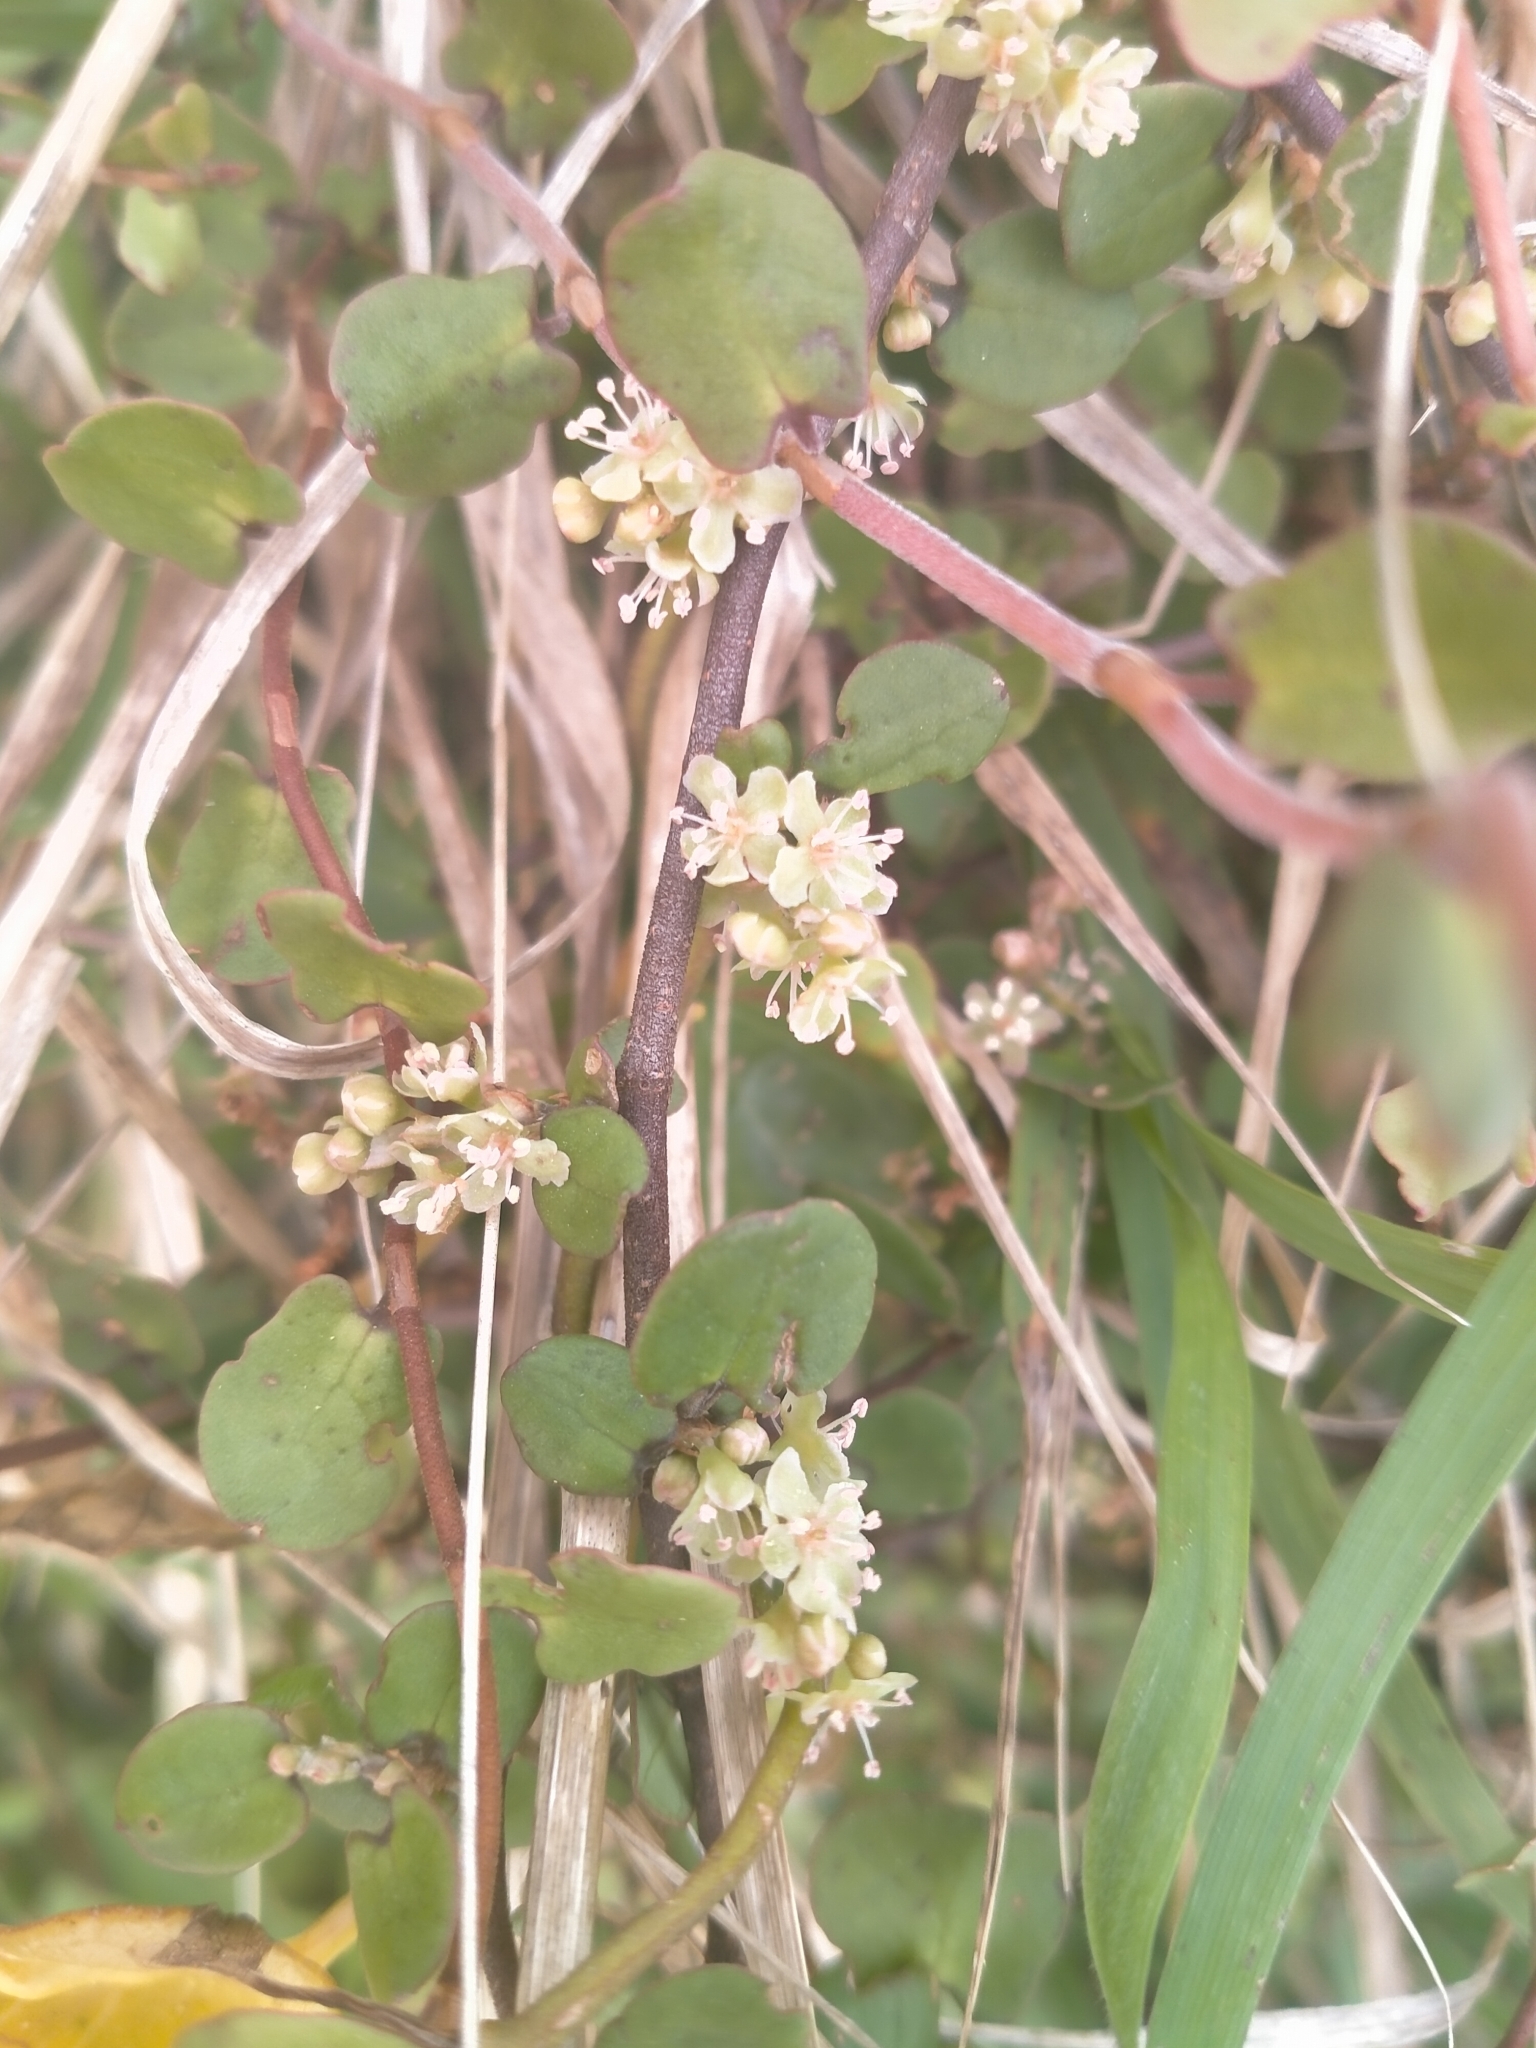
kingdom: Plantae
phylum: Tracheophyta
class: Magnoliopsida
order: Caryophyllales
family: Polygonaceae
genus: Muehlenbeckia
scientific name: Muehlenbeckia complexa
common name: Wireplant
